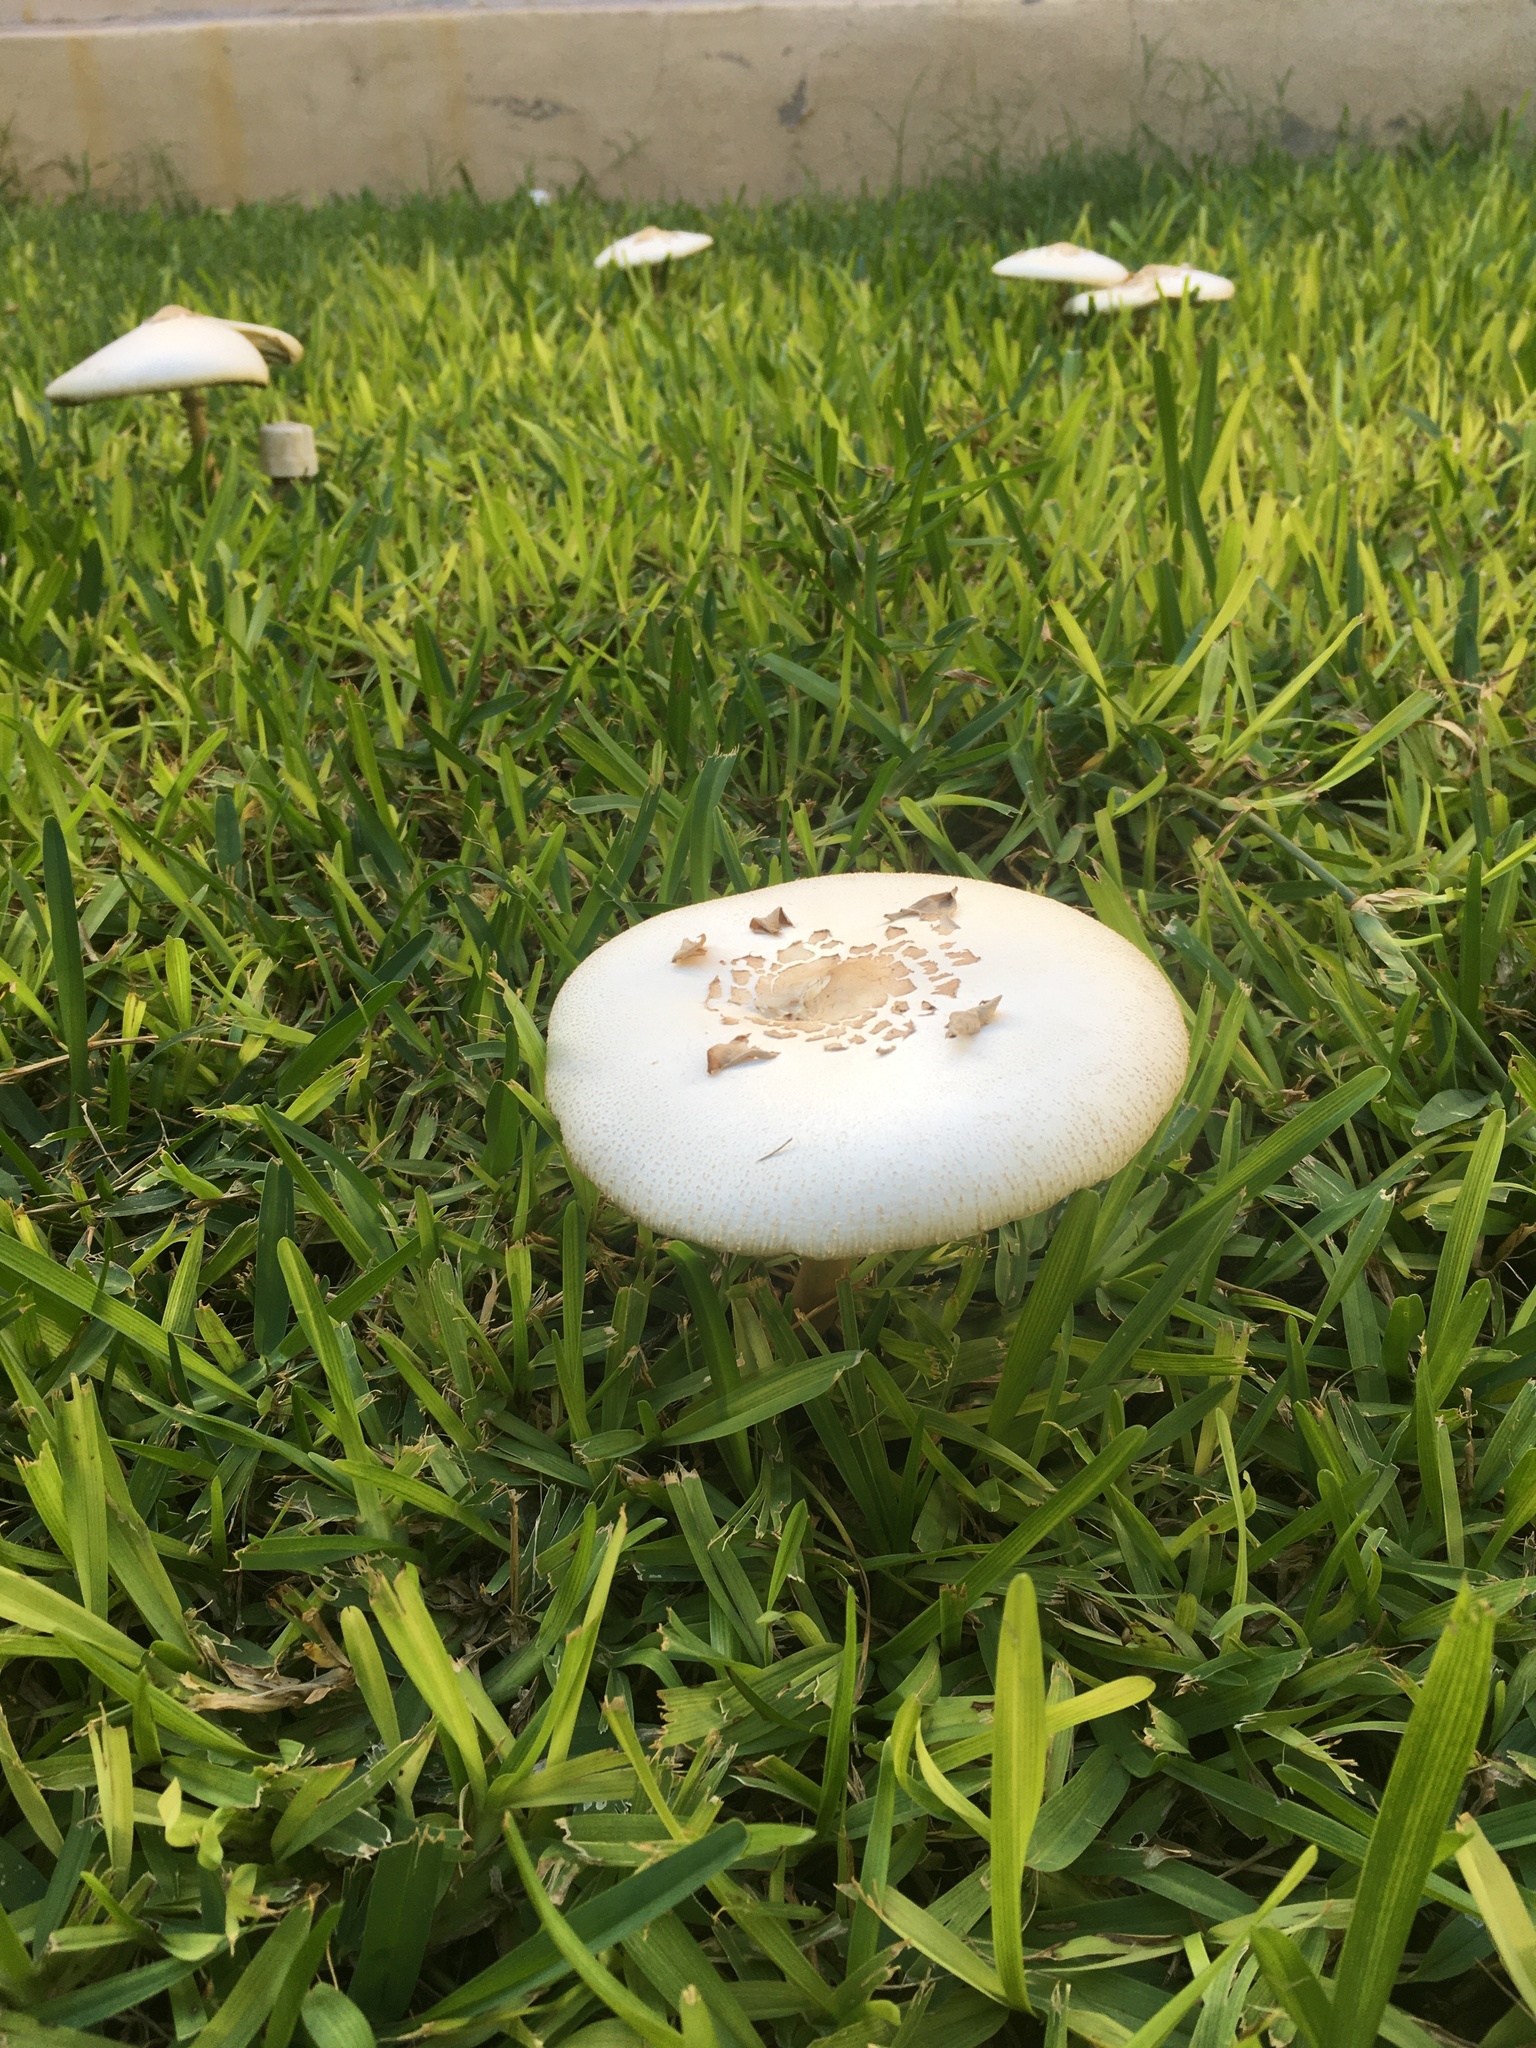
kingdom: Fungi
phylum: Basidiomycota
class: Agaricomycetes
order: Agaricales
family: Agaricaceae
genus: Chlorophyllum
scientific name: Chlorophyllum molybdites
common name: False parasol
